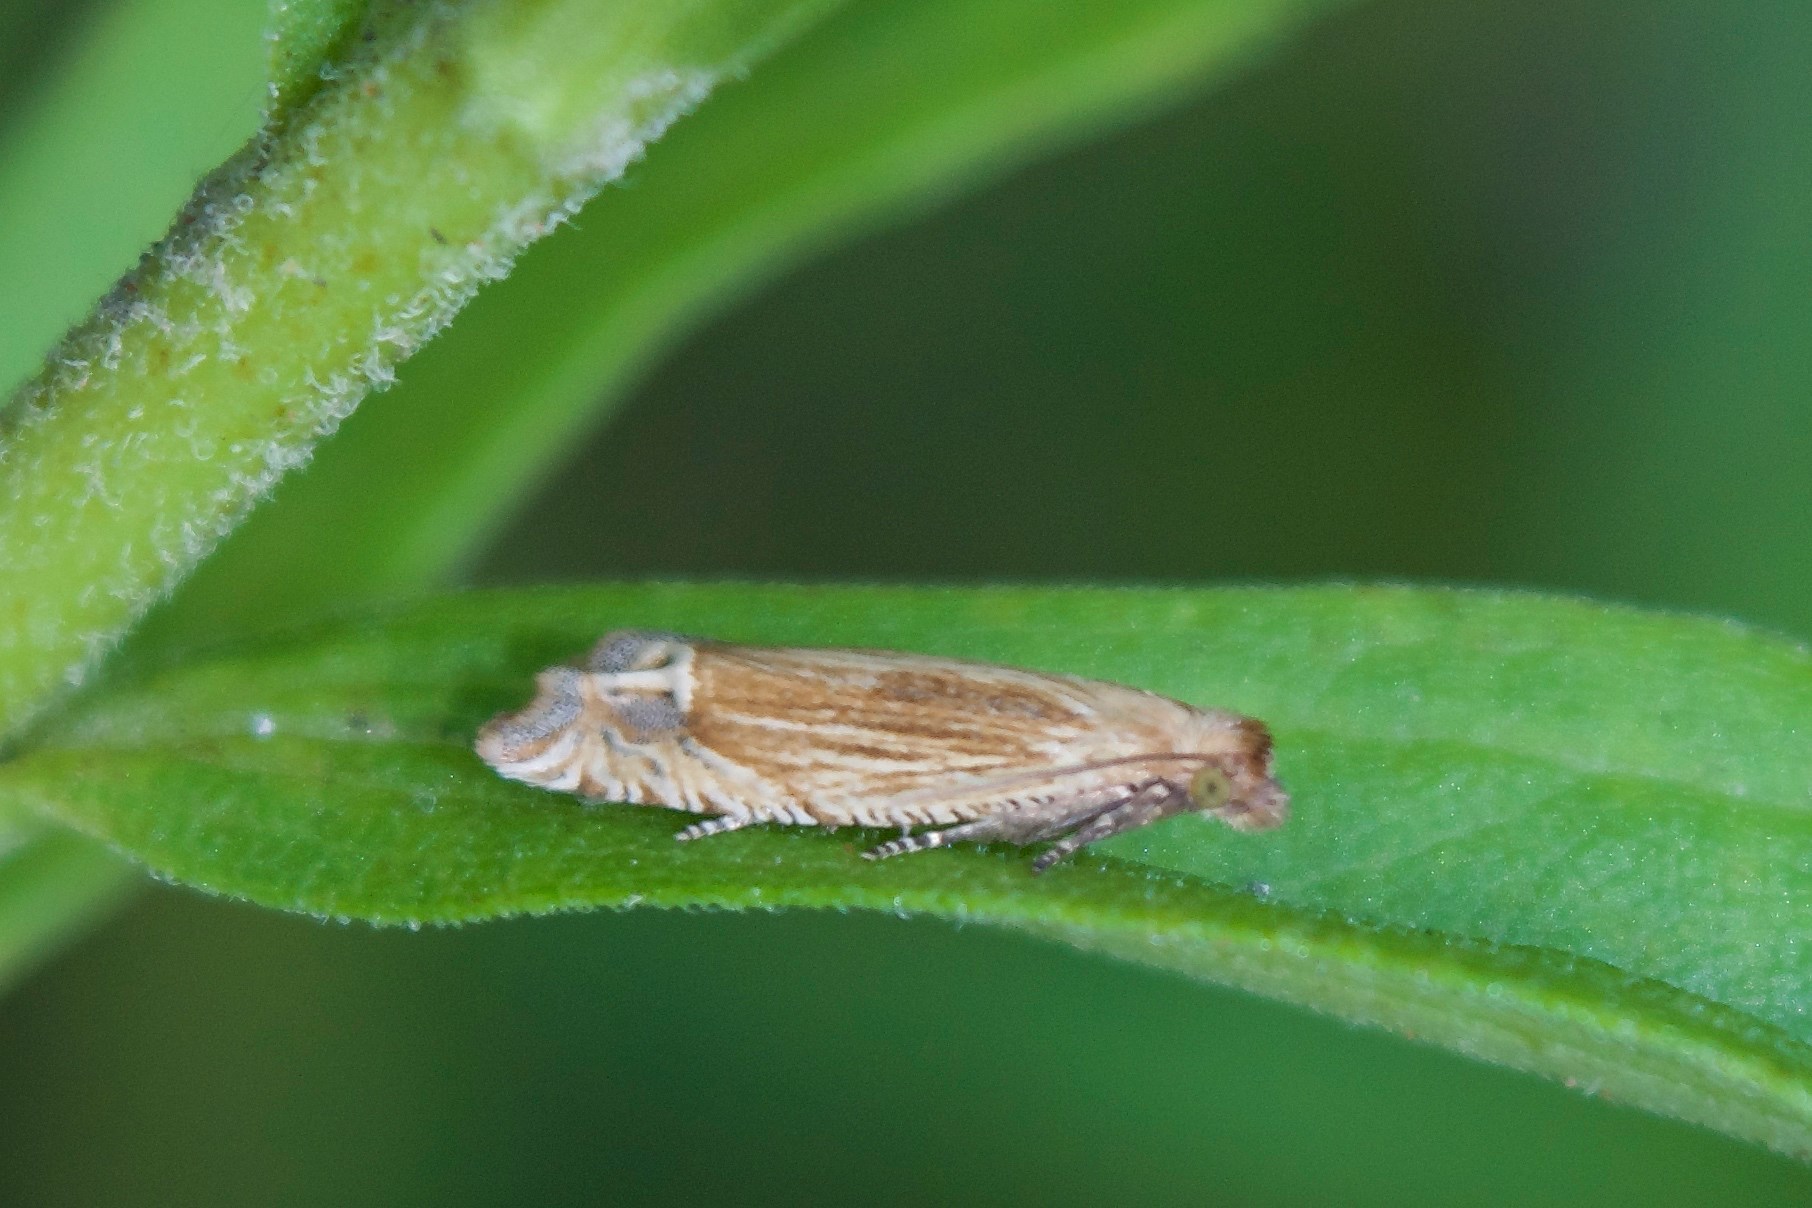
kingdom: Animalia
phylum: Arthropoda
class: Insecta
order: Lepidoptera
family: Tortricidae
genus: Pelochrista
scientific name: Pelochrista cataclystiana
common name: Goldenrod pelochrista moth
